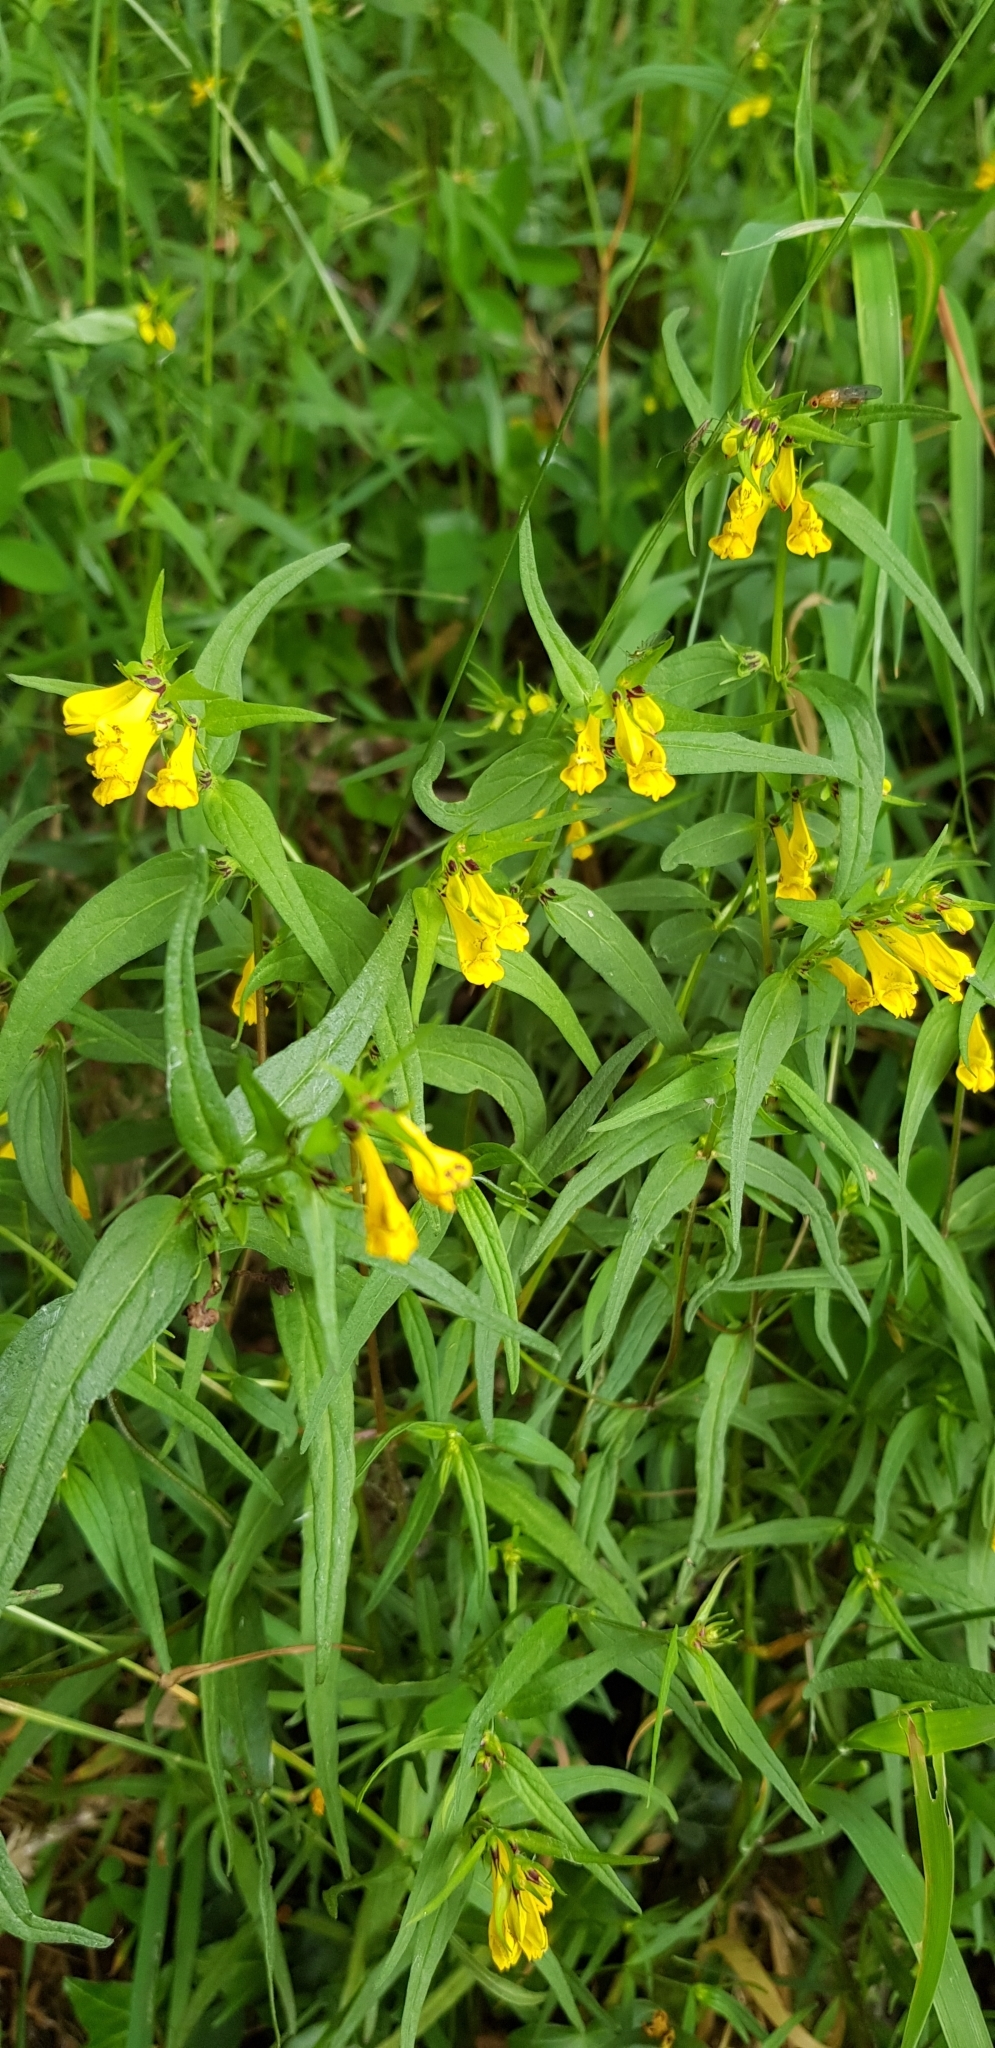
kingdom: Plantae
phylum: Tracheophyta
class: Magnoliopsida
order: Lamiales
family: Orobanchaceae
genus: Melampyrum
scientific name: Melampyrum pratense
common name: Common cow-wheat
